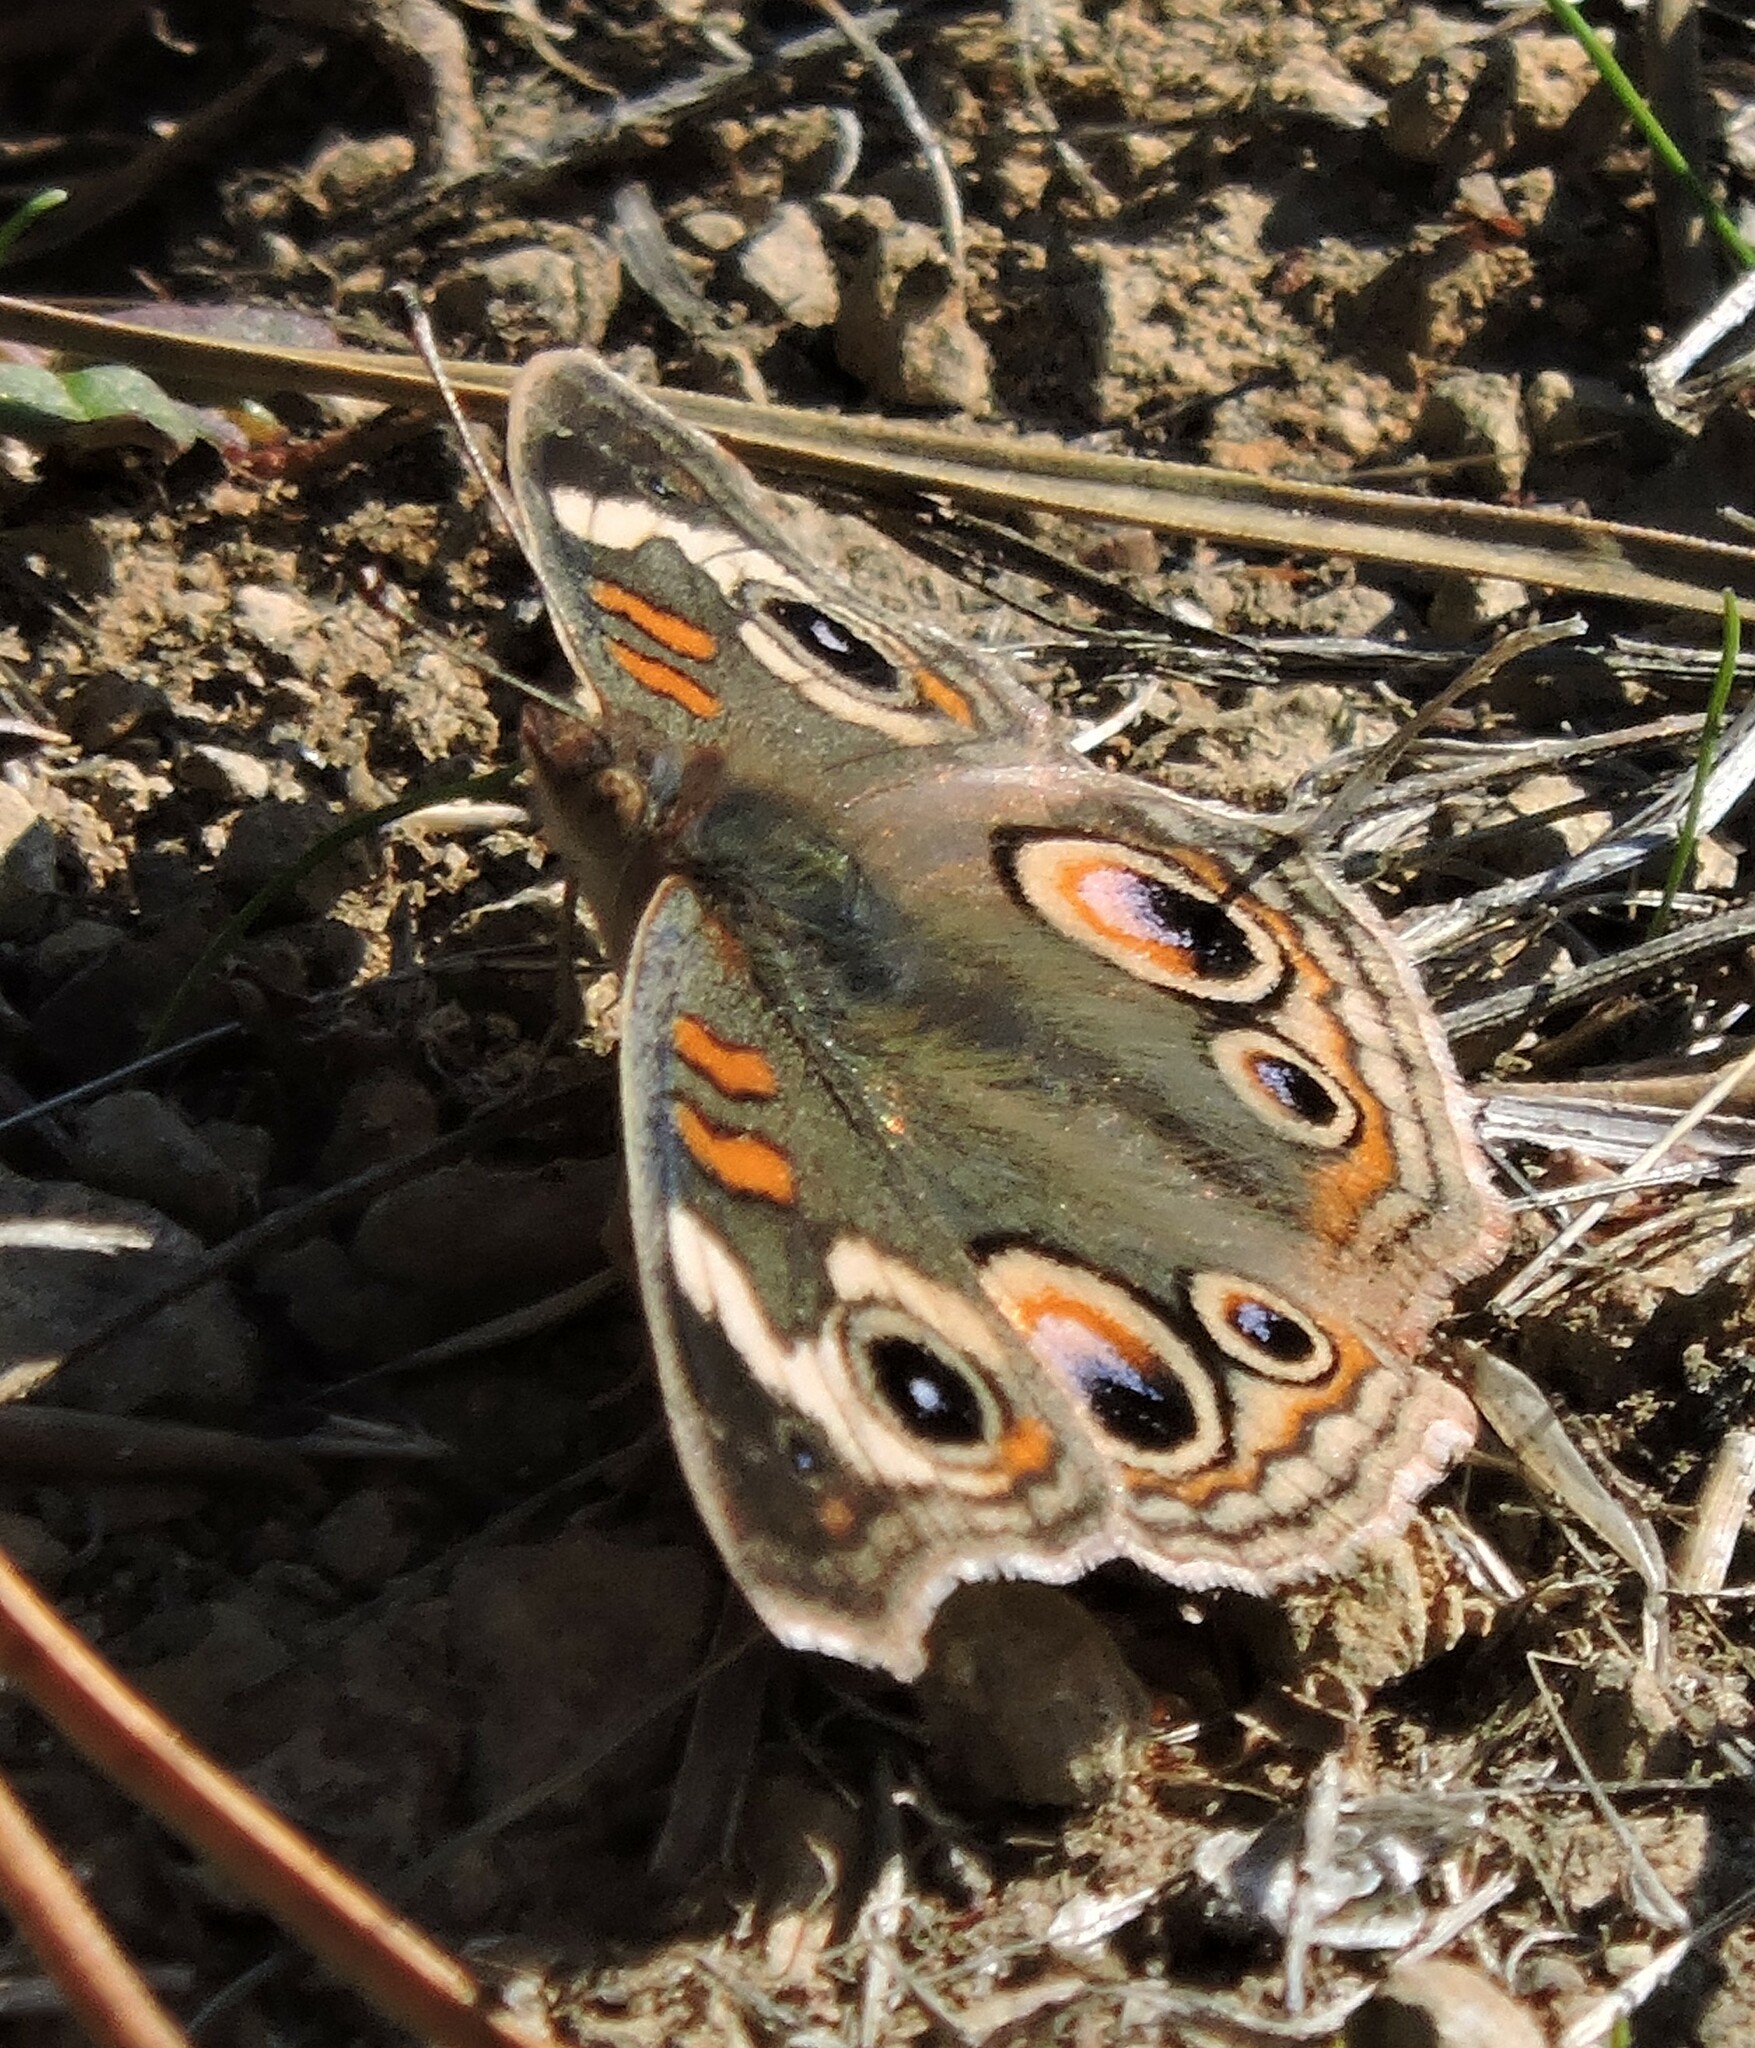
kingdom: Animalia
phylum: Arthropoda
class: Insecta
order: Lepidoptera
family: Nymphalidae
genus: Junonia
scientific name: Junonia grisea
